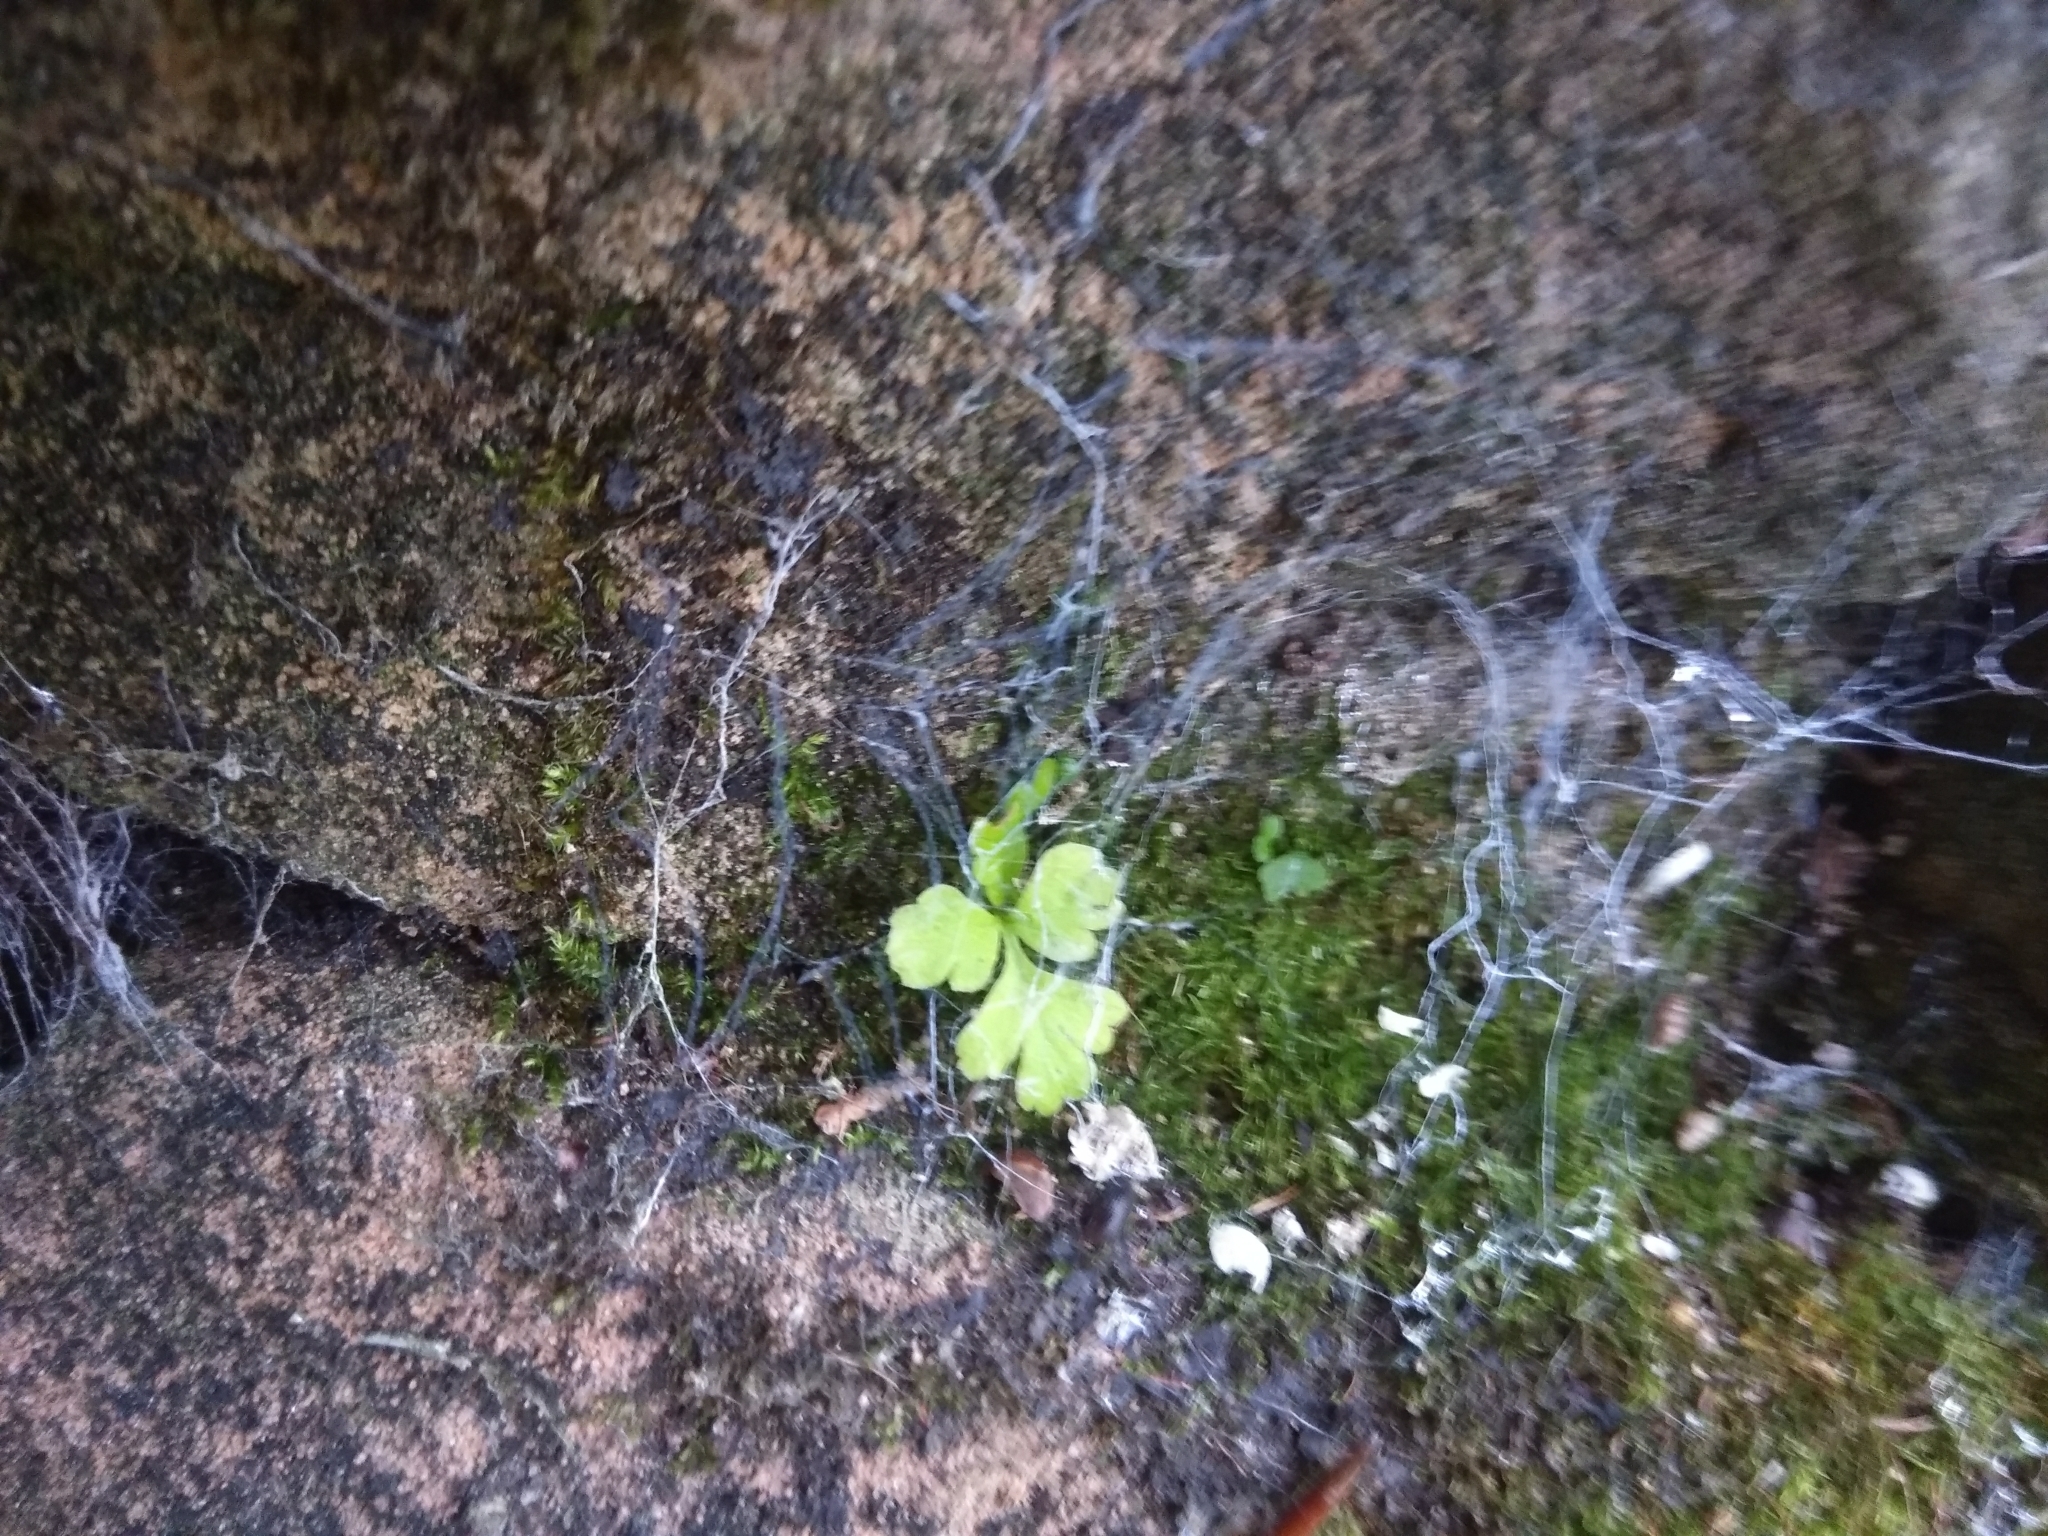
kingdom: Plantae
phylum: Tracheophyta
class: Polypodiopsida
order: Polypodiales
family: Aspleniaceae
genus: Asplenium
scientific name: Asplenium ruta-muraria
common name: Wall-rue
